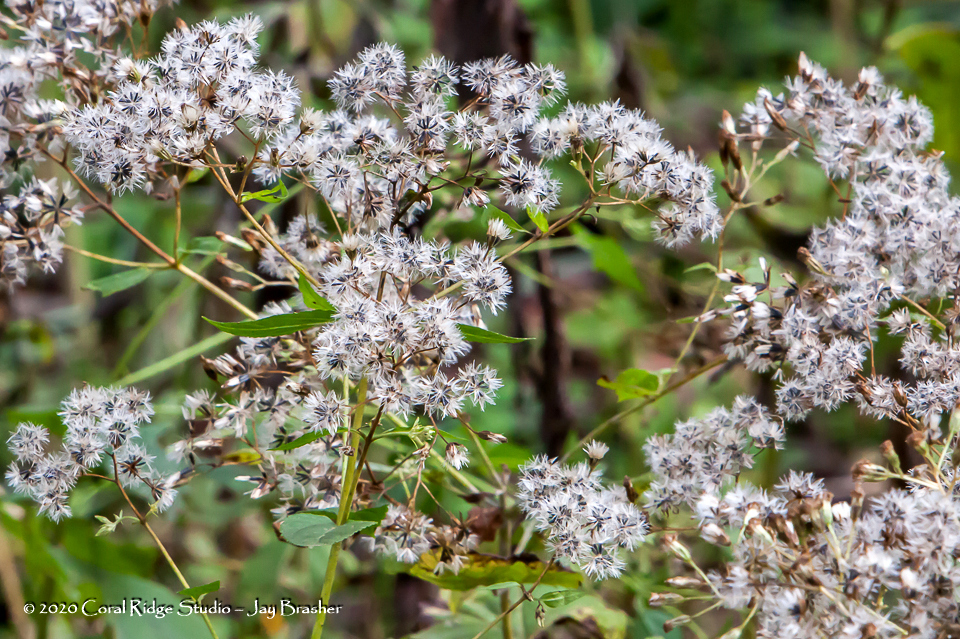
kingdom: Plantae
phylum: Tracheophyta
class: Magnoliopsida
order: Asterales
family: Asteraceae
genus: Ageratina
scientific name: Ageratina altissima
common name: White snakeroot
